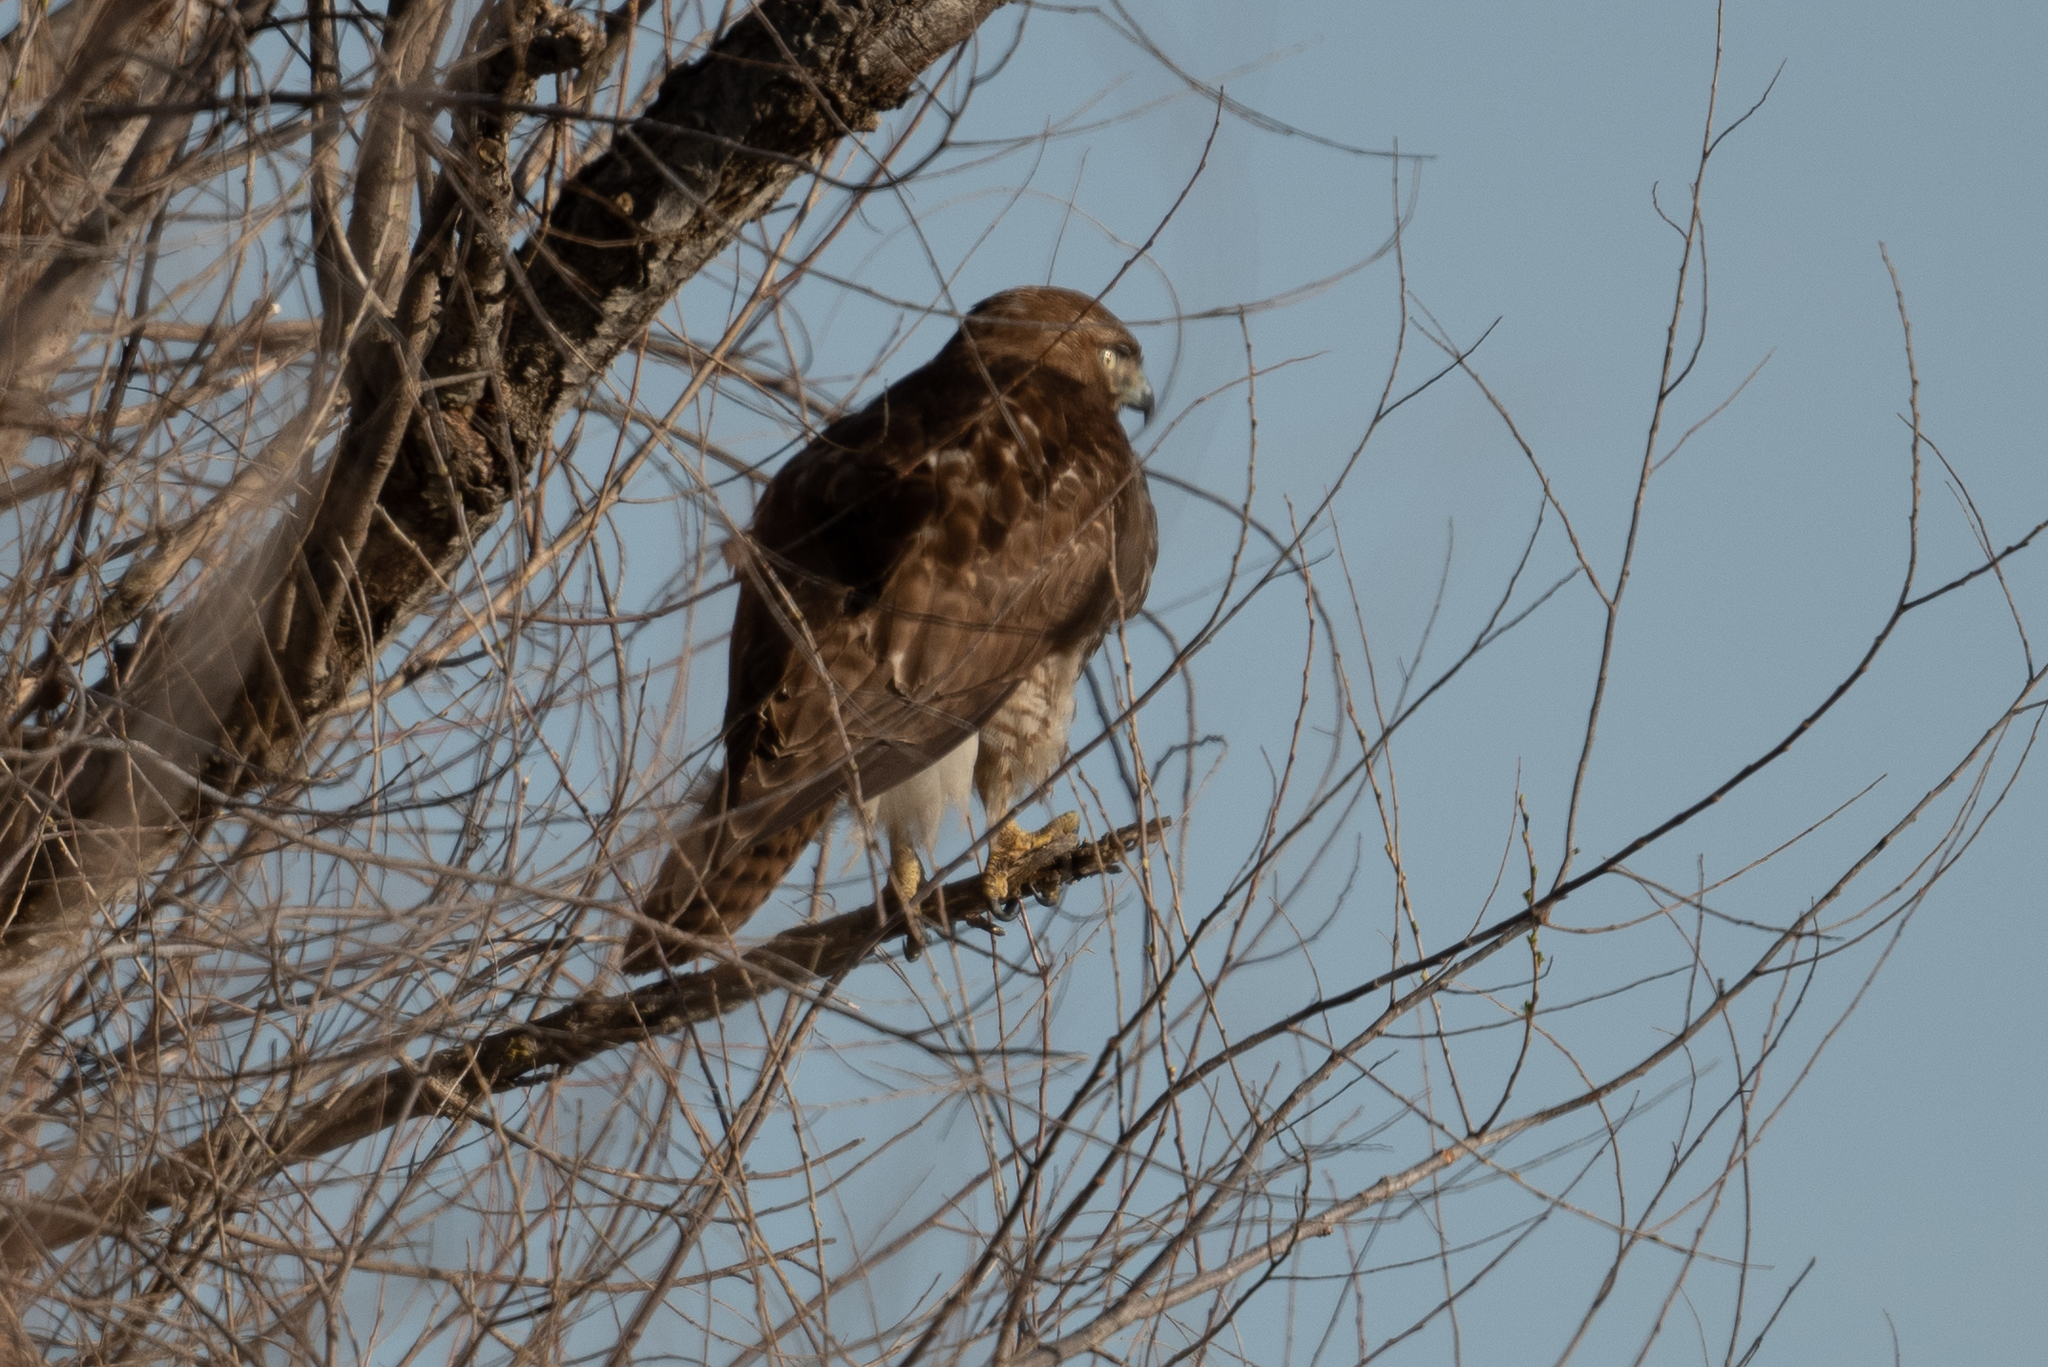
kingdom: Animalia
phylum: Chordata
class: Aves
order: Accipitriformes
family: Accipitridae
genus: Buteo
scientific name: Buteo jamaicensis
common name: Red-tailed hawk
